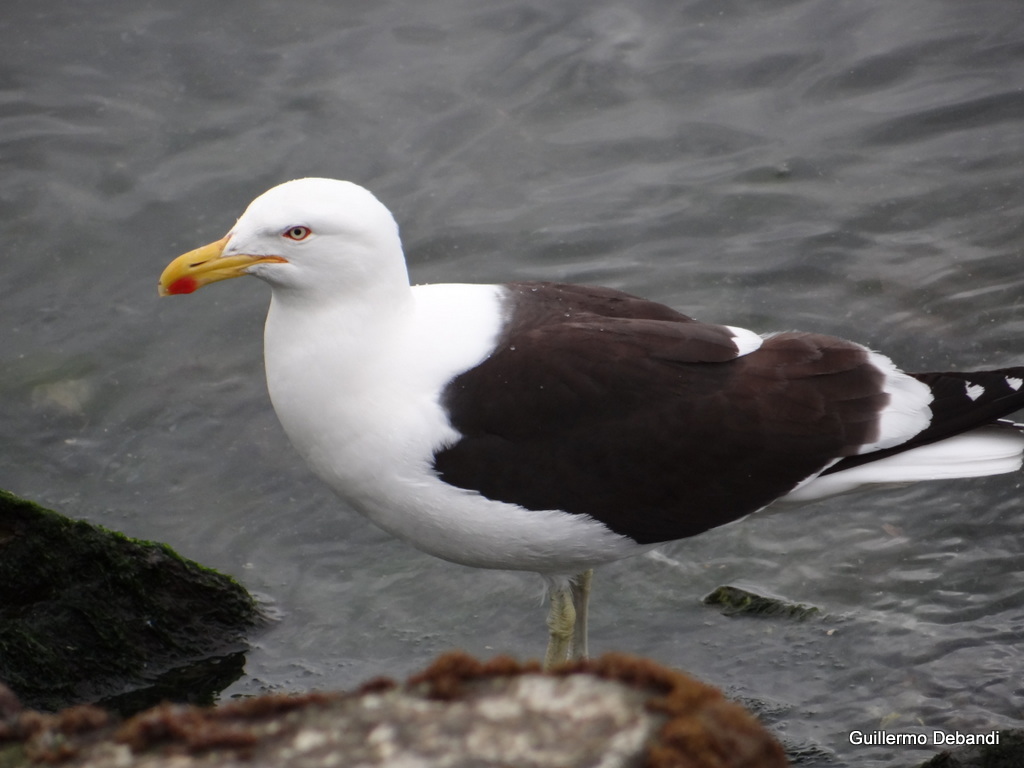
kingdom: Animalia
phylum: Chordata
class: Aves
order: Charadriiformes
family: Laridae
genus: Larus
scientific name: Larus dominicanus
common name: Kelp gull
